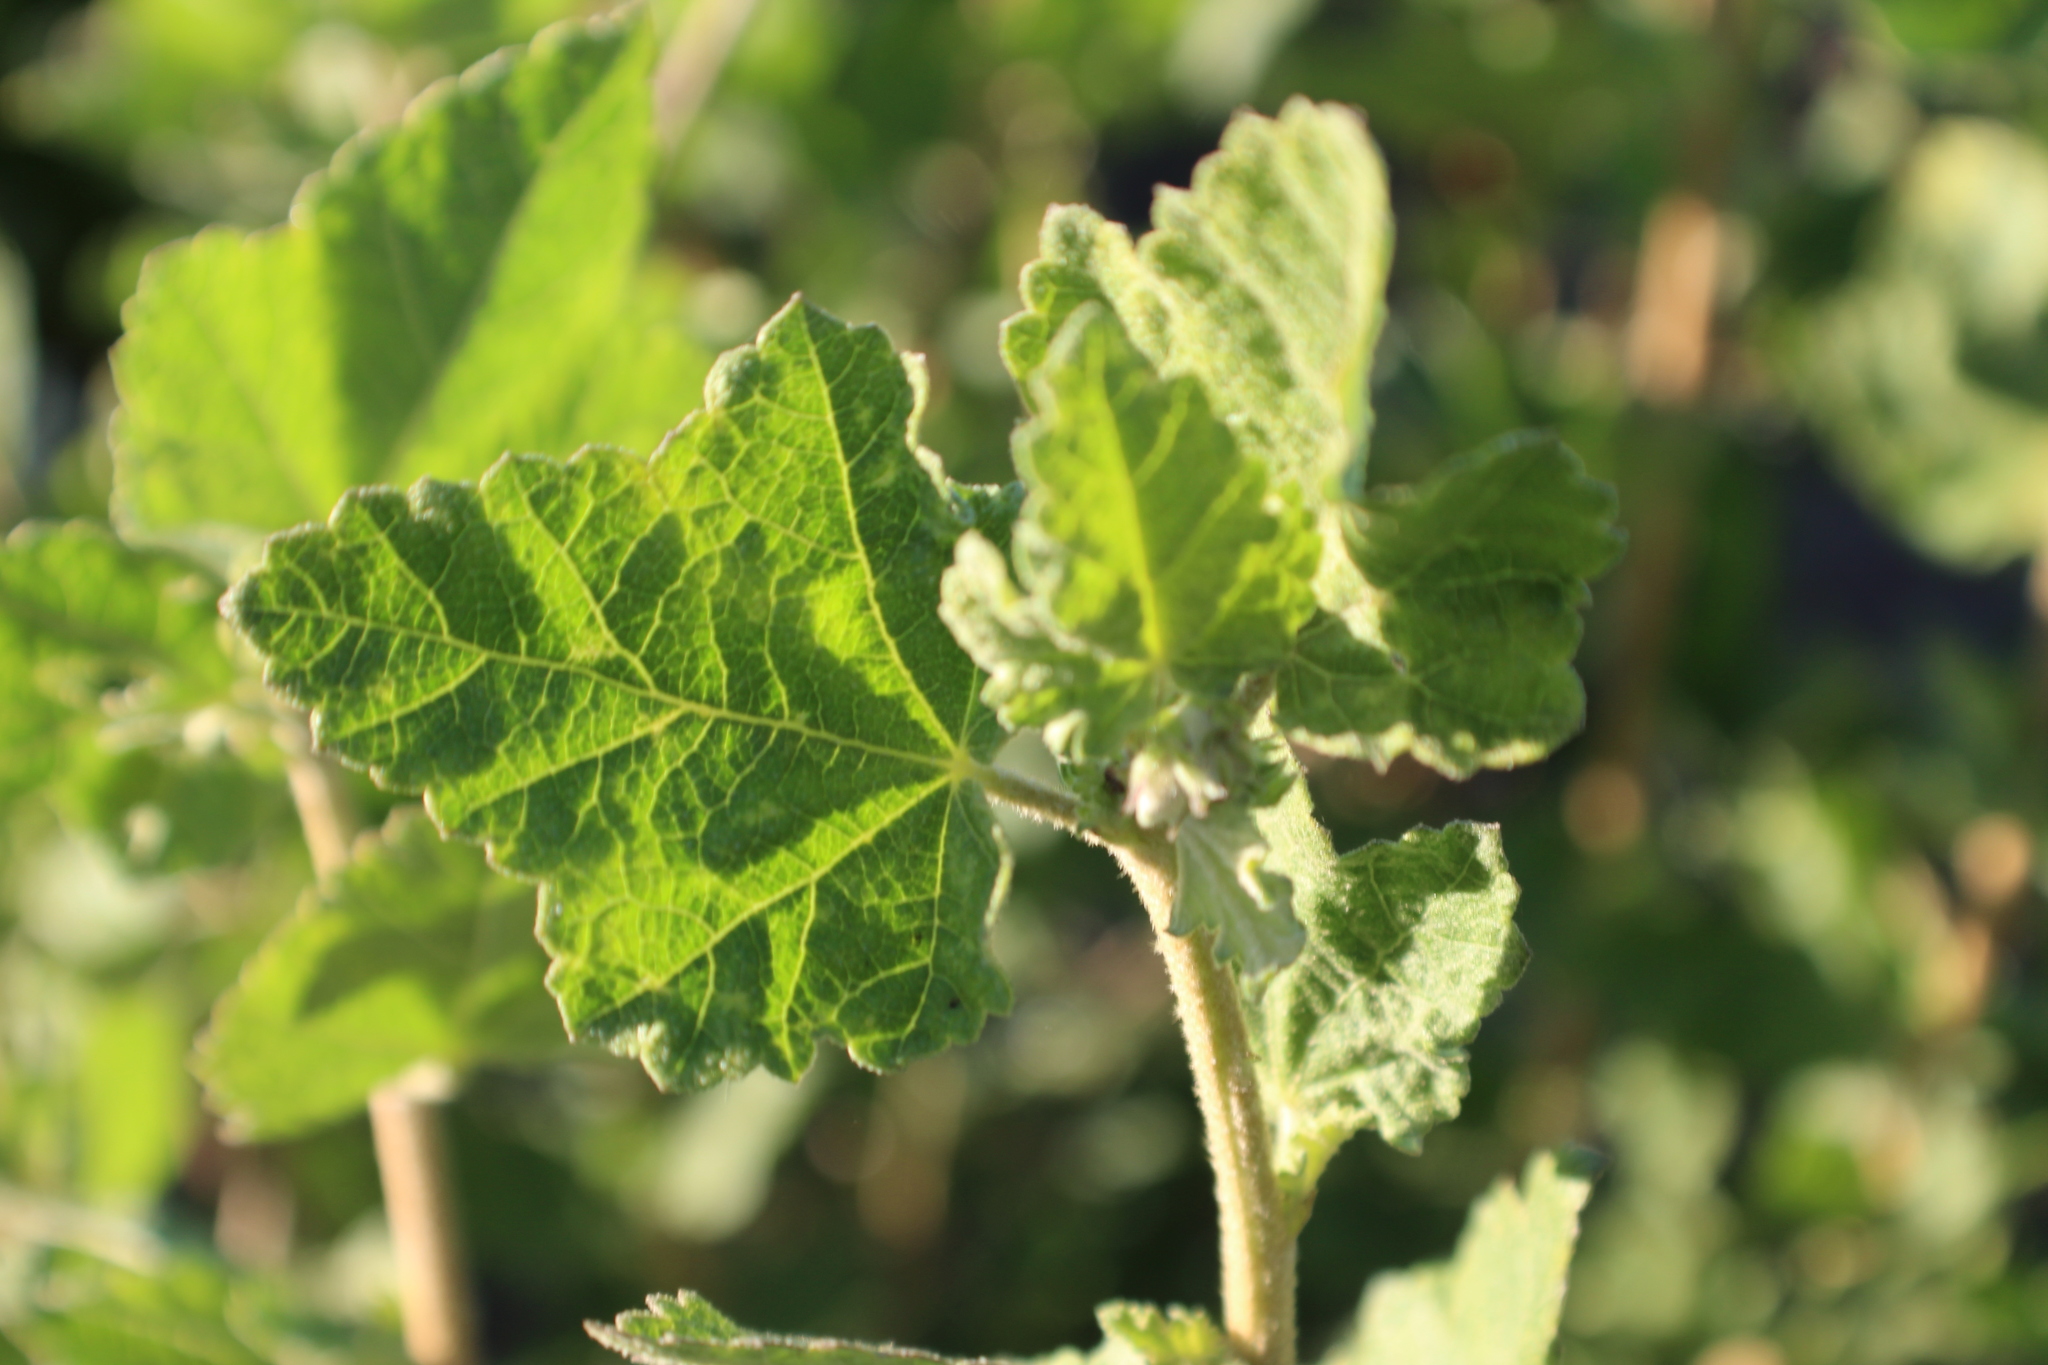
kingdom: Plantae
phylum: Tracheophyta
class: Magnoliopsida
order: Malvales
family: Malvaceae
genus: Malacothamnus
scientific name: Malacothamnus fasciculatus
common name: Sant cruz island bush-mallow
